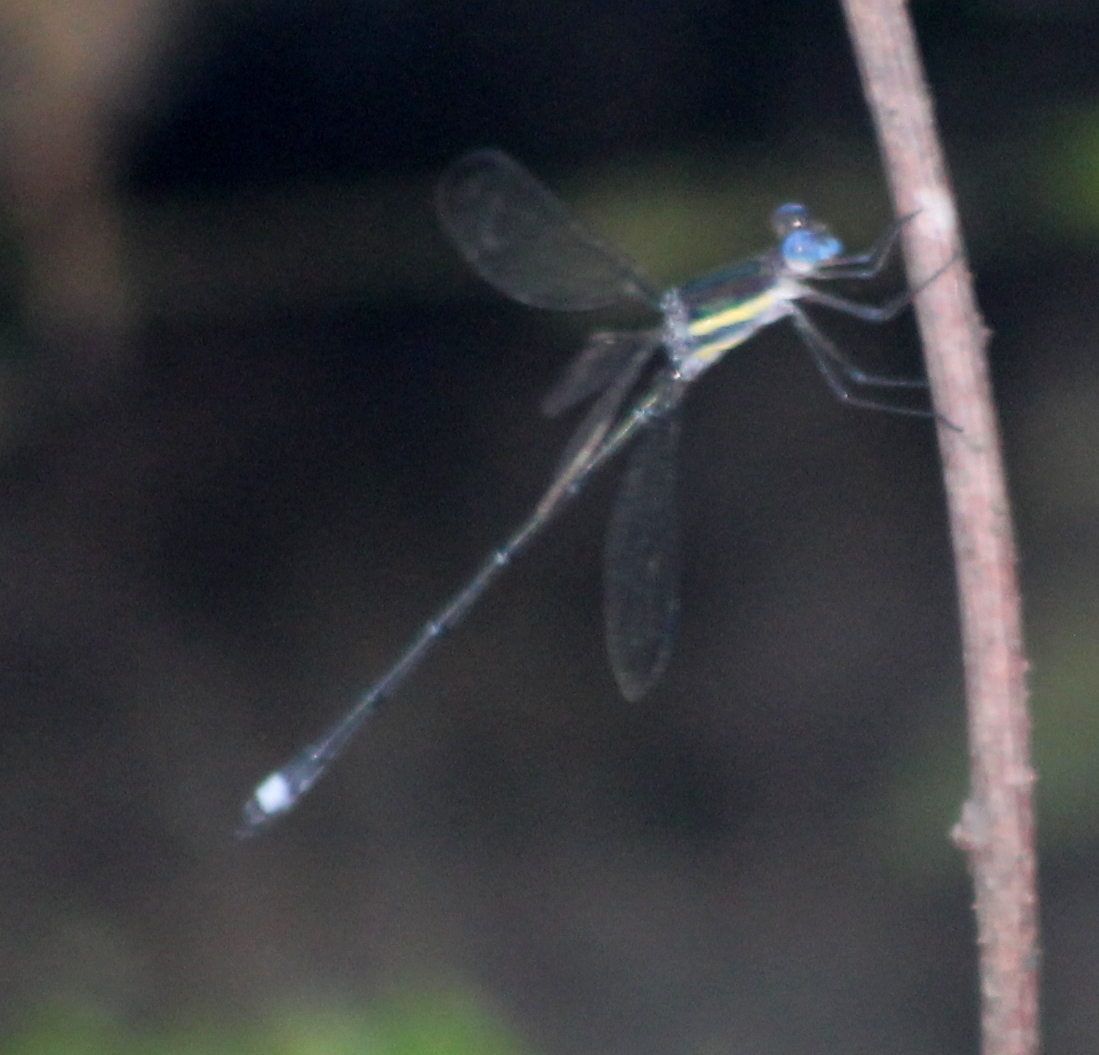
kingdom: Animalia
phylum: Arthropoda
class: Insecta
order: Odonata
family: Lestidae
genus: Archilestes
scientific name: Archilestes grandis
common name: Great spreadwing
